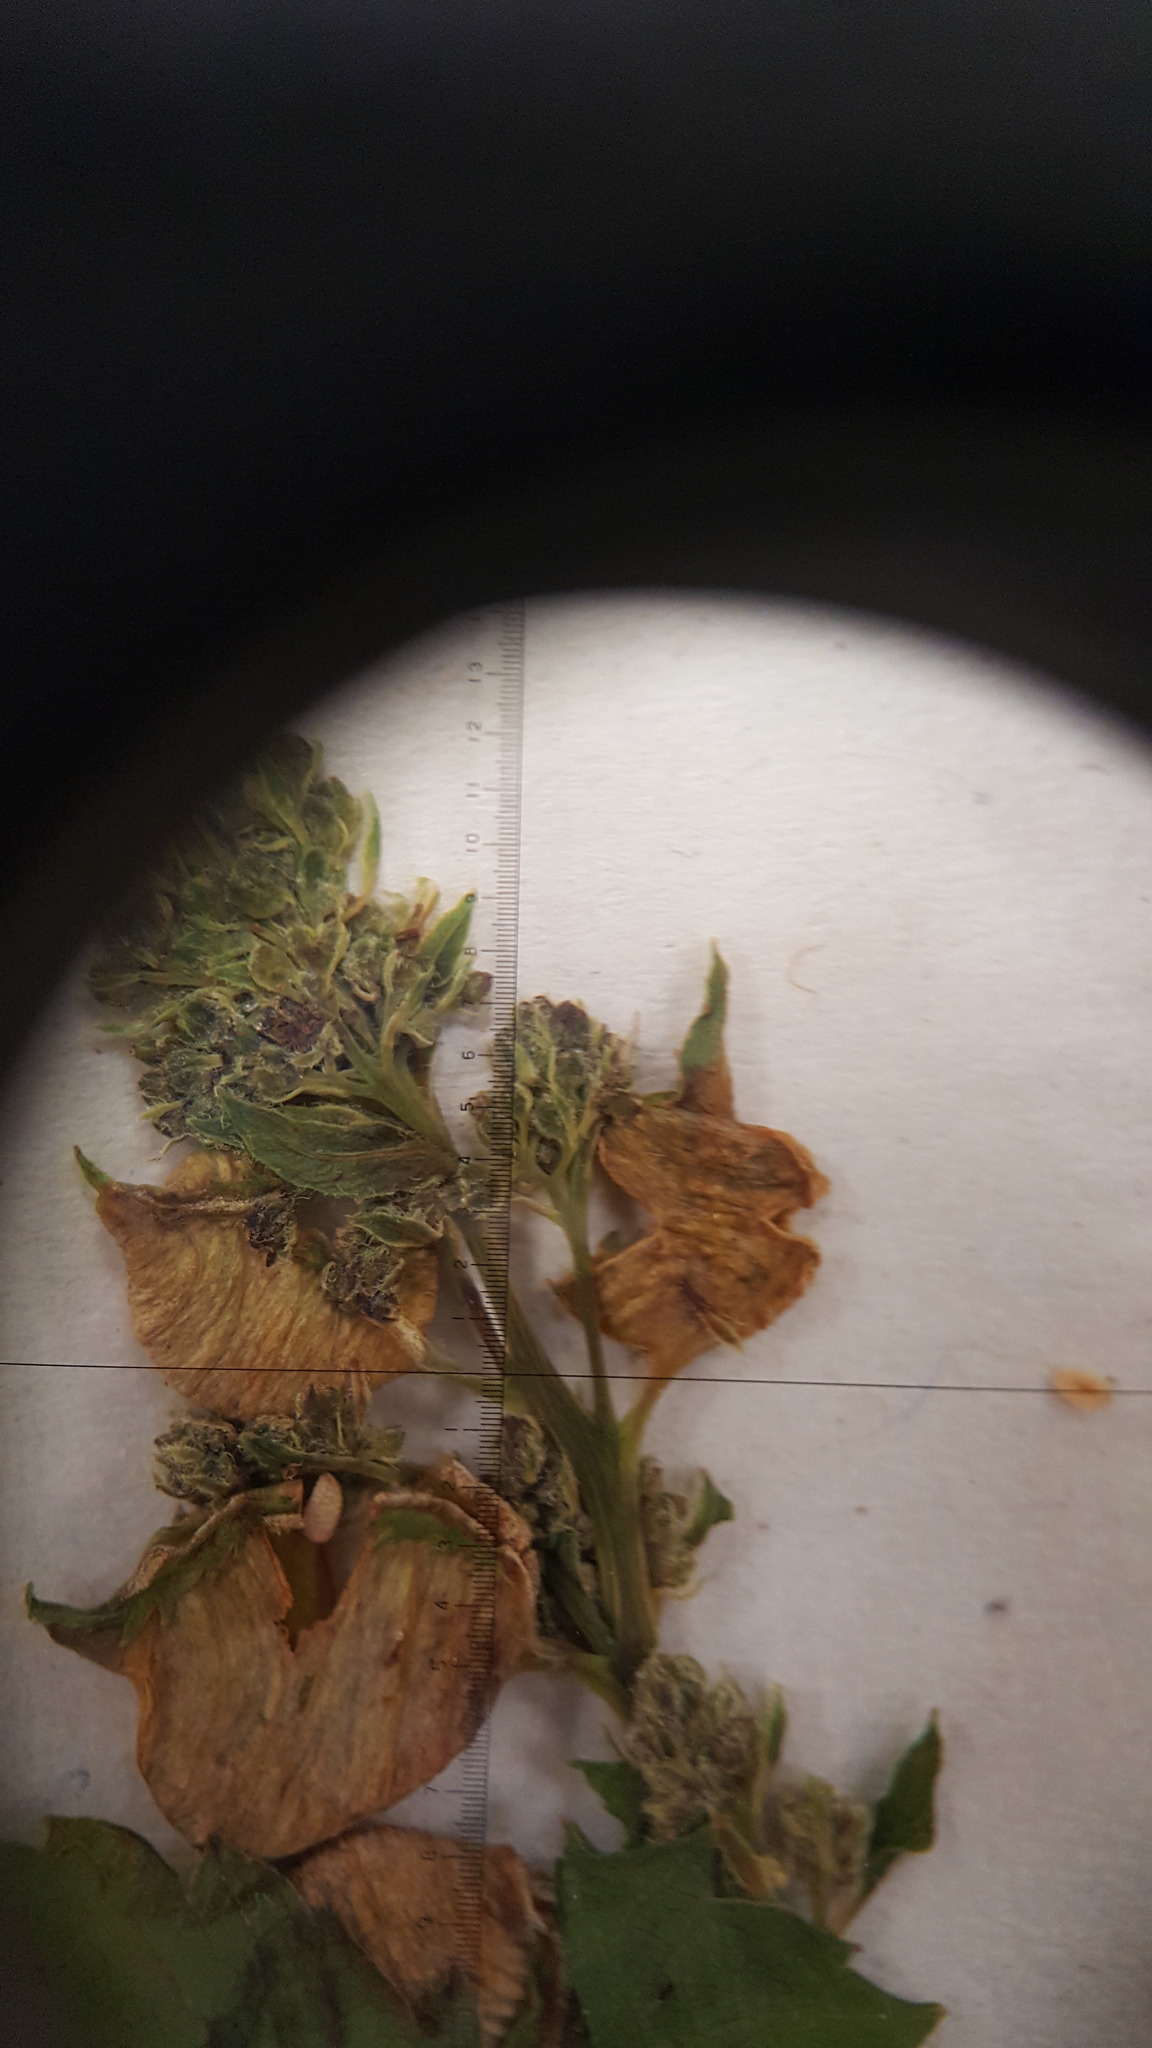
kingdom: Plantae
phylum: Tracheophyta
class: Magnoliopsida
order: Rosales
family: Rosaceae
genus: Spiraea
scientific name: Spiraea alba
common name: Pale bridewort
